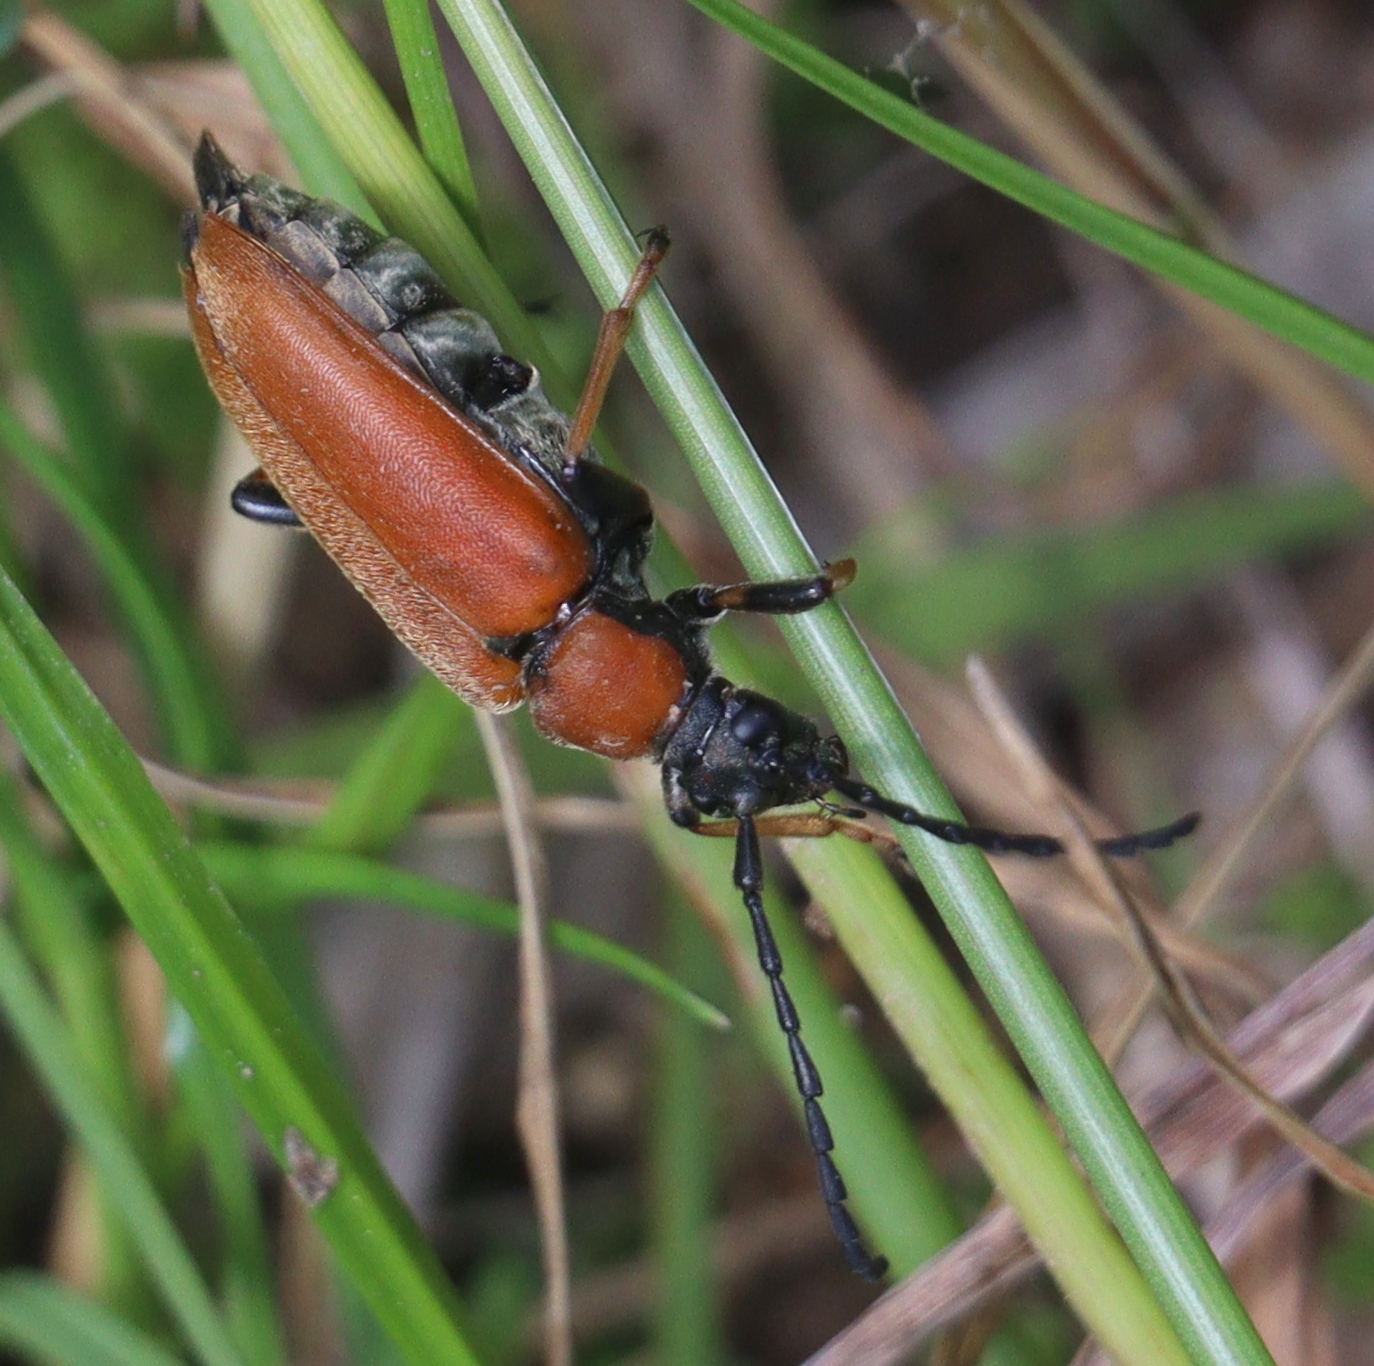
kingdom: Animalia
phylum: Arthropoda
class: Insecta
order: Coleoptera
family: Cerambycidae
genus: Stictoleptura
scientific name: Stictoleptura rubra
